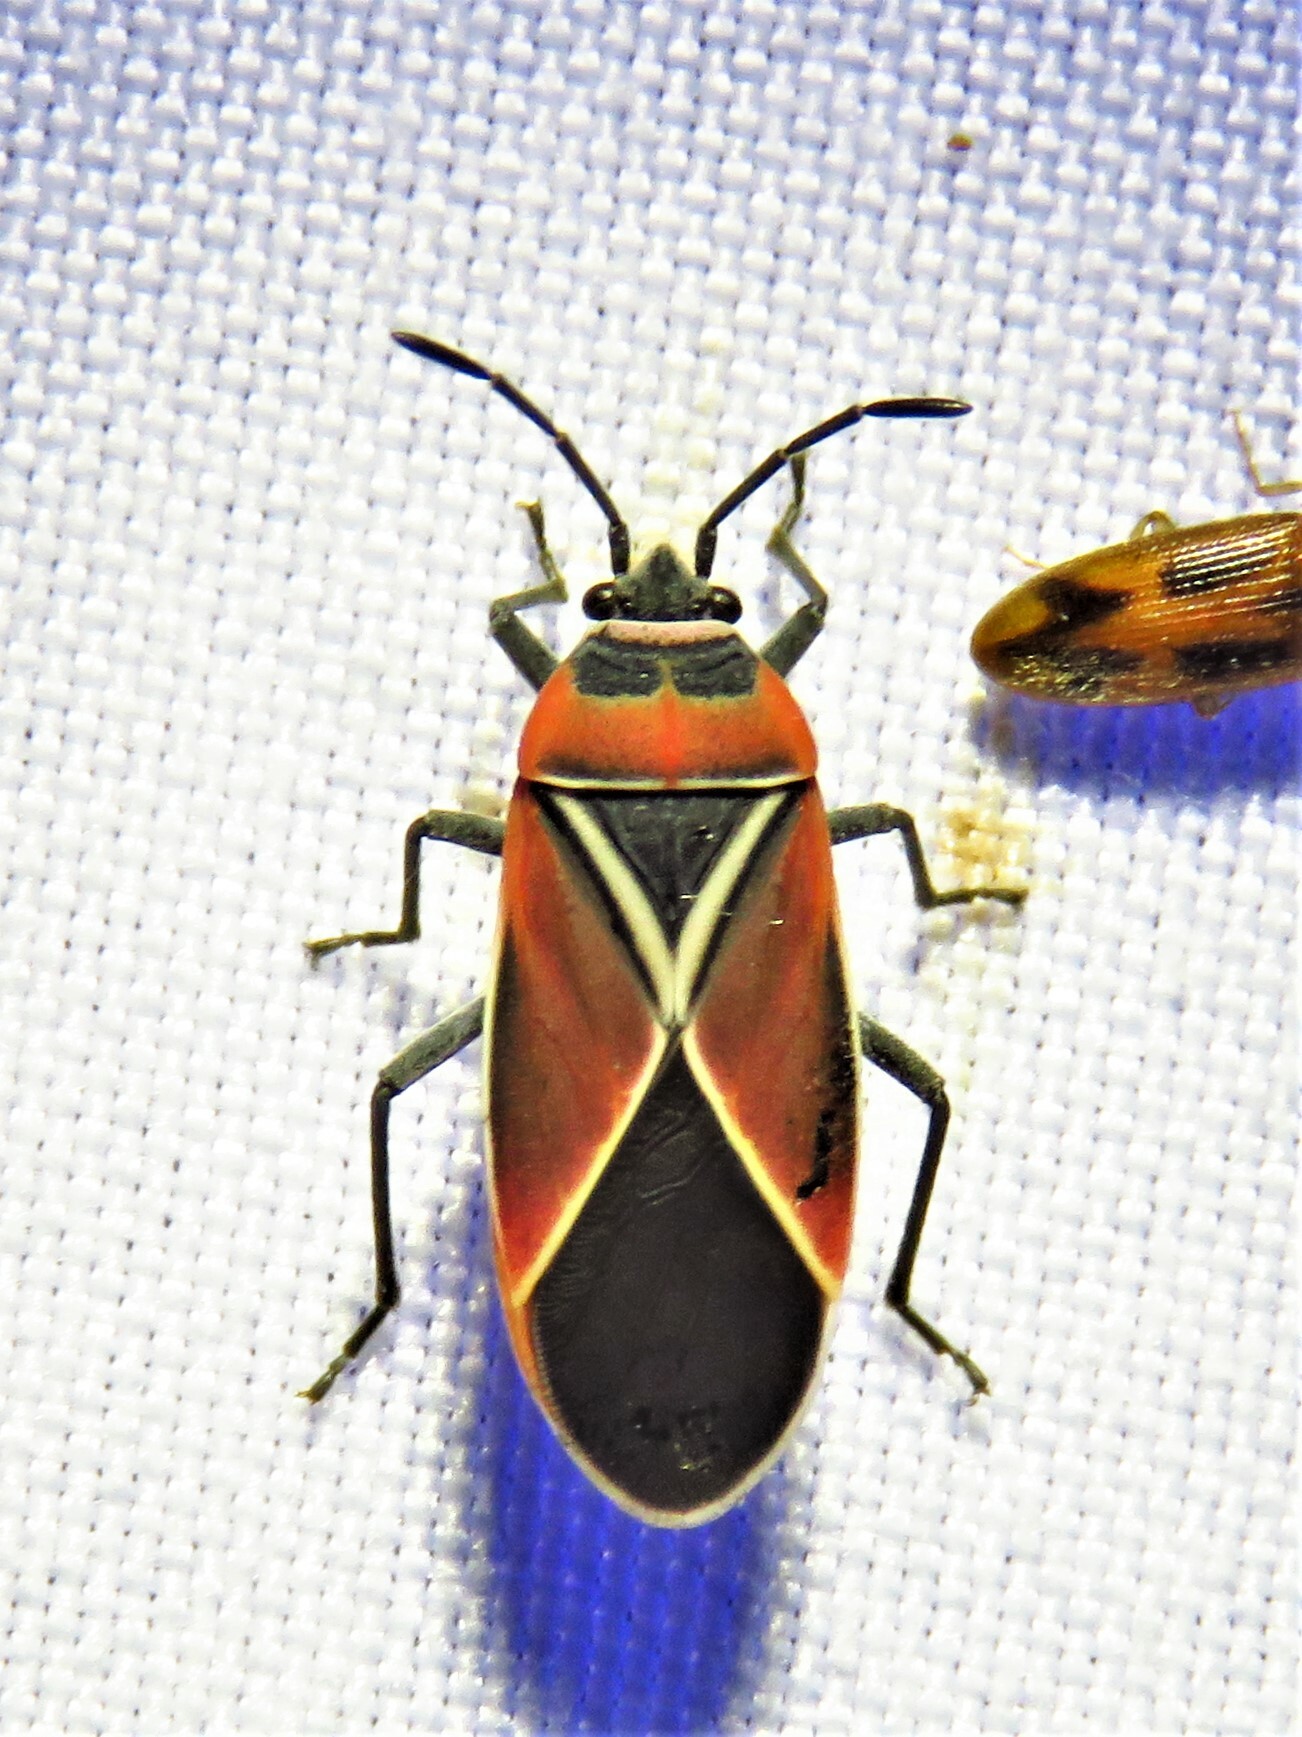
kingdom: Animalia
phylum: Arthropoda
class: Insecta
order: Hemiptera
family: Lygaeidae
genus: Neacoryphus
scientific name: Neacoryphus bicrucis
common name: Lygaeid bug
